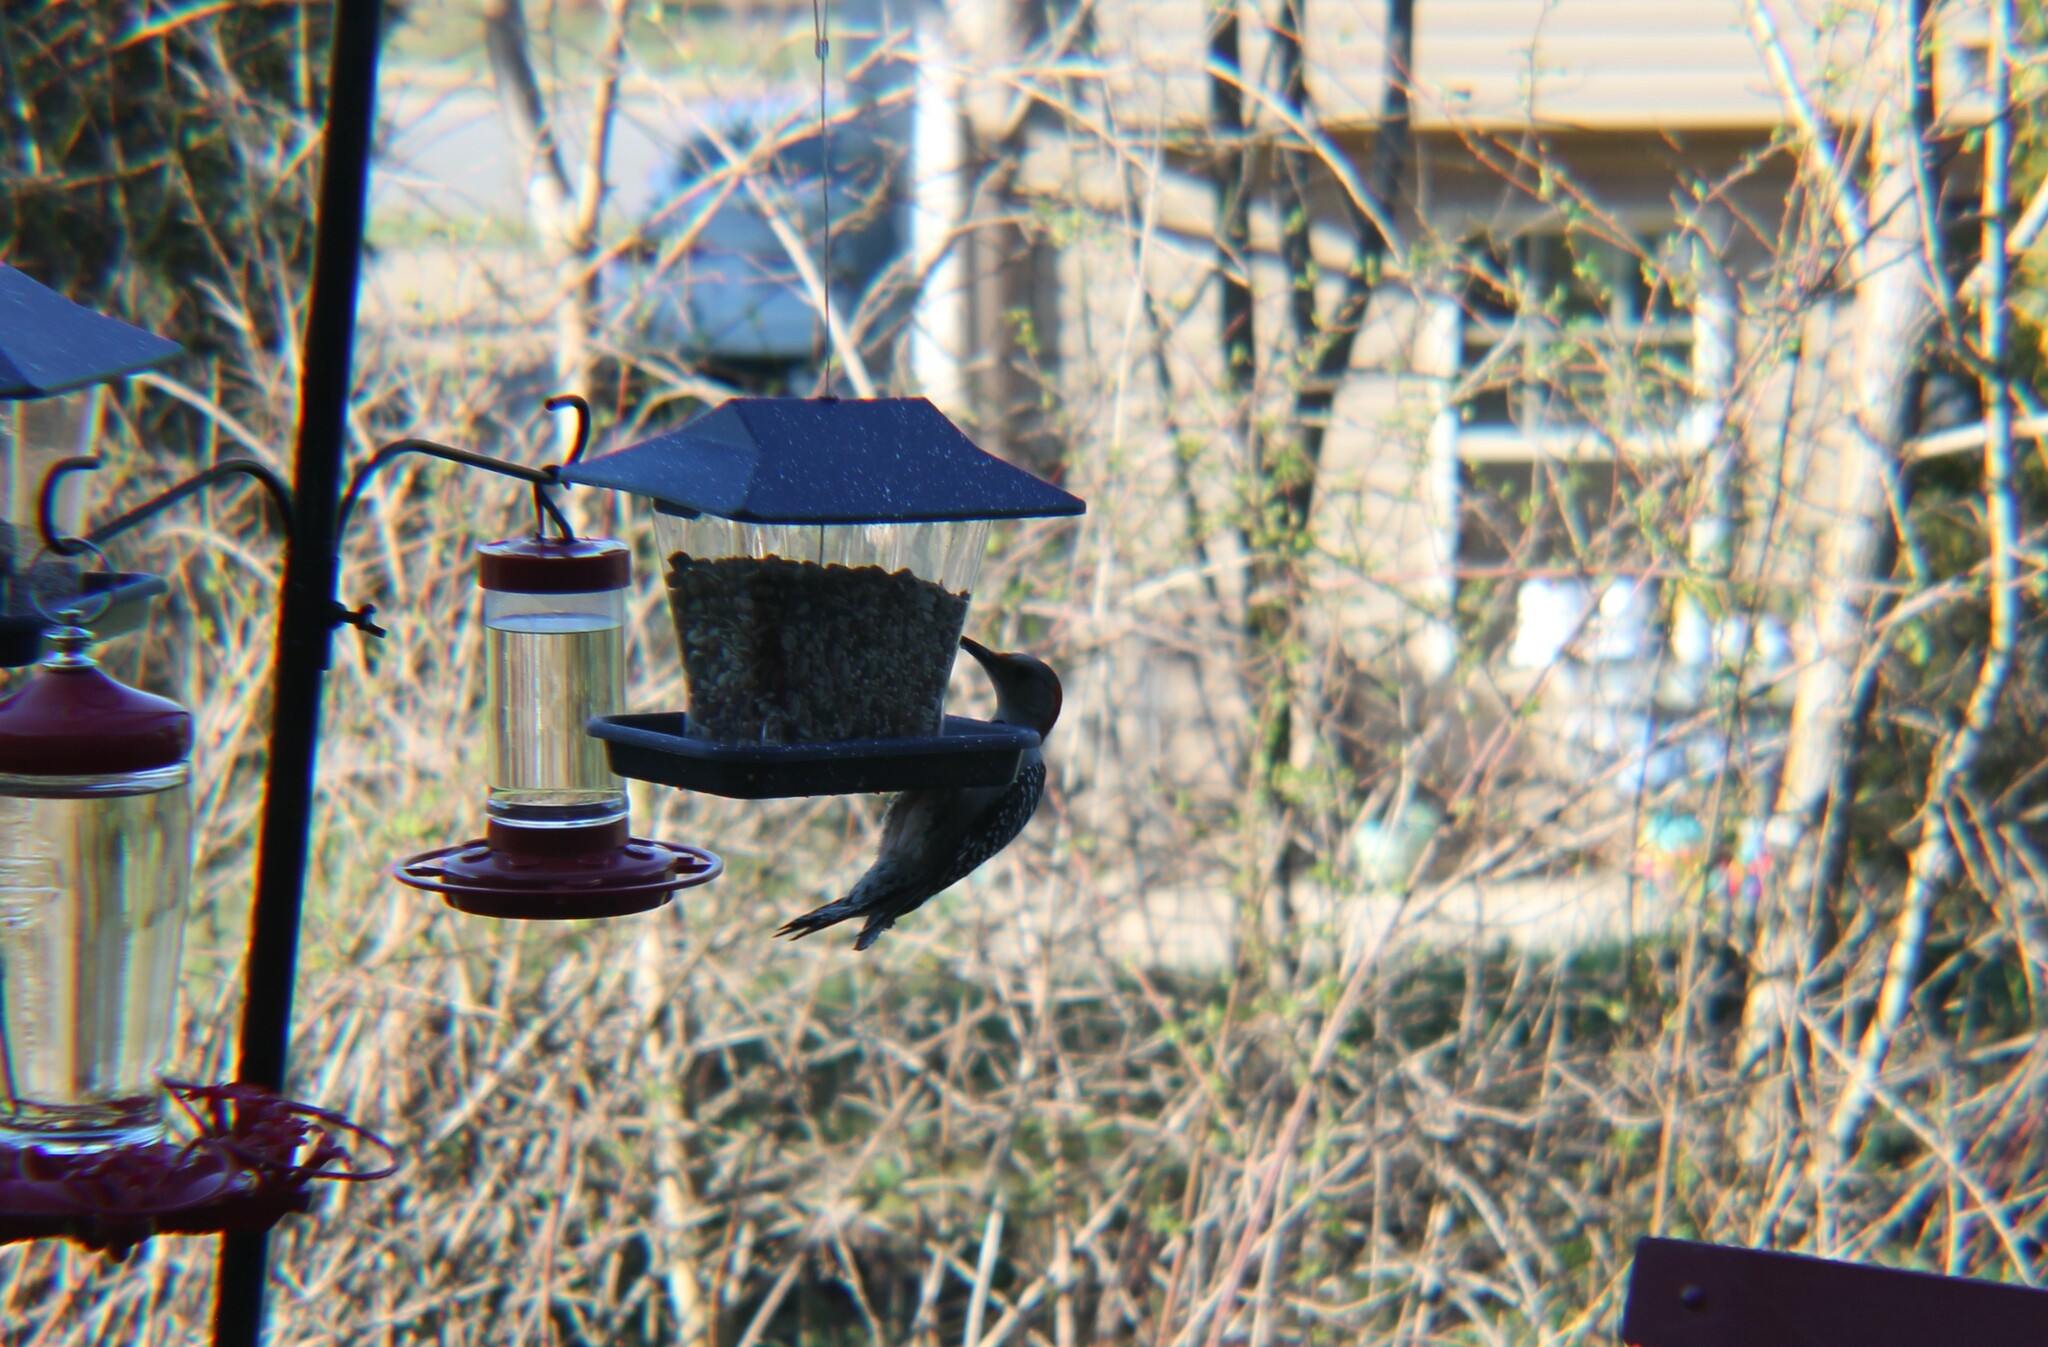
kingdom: Animalia
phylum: Chordata
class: Aves
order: Piciformes
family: Picidae
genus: Melanerpes
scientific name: Melanerpes carolinus
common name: Red-bellied woodpecker
